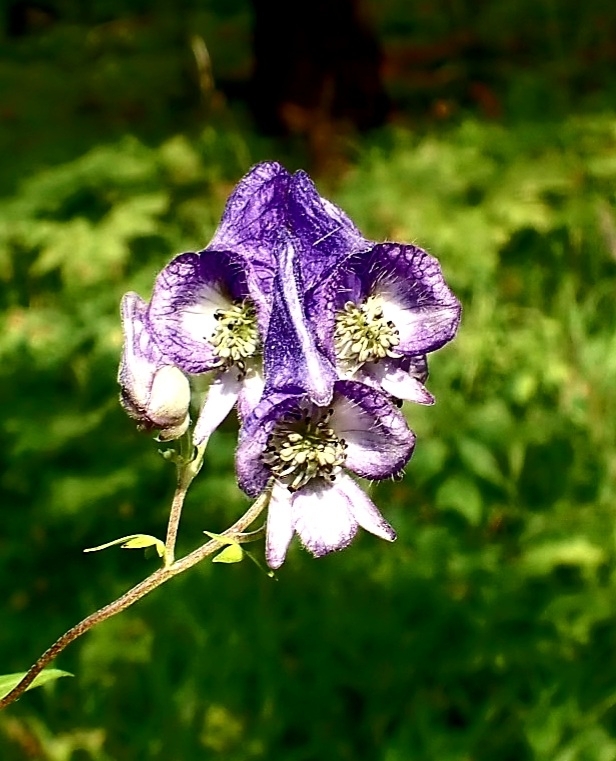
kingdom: Plantae
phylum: Tracheophyta
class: Magnoliopsida
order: Ranunculales
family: Ranunculaceae
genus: Aconitum
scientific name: Aconitum volubile
